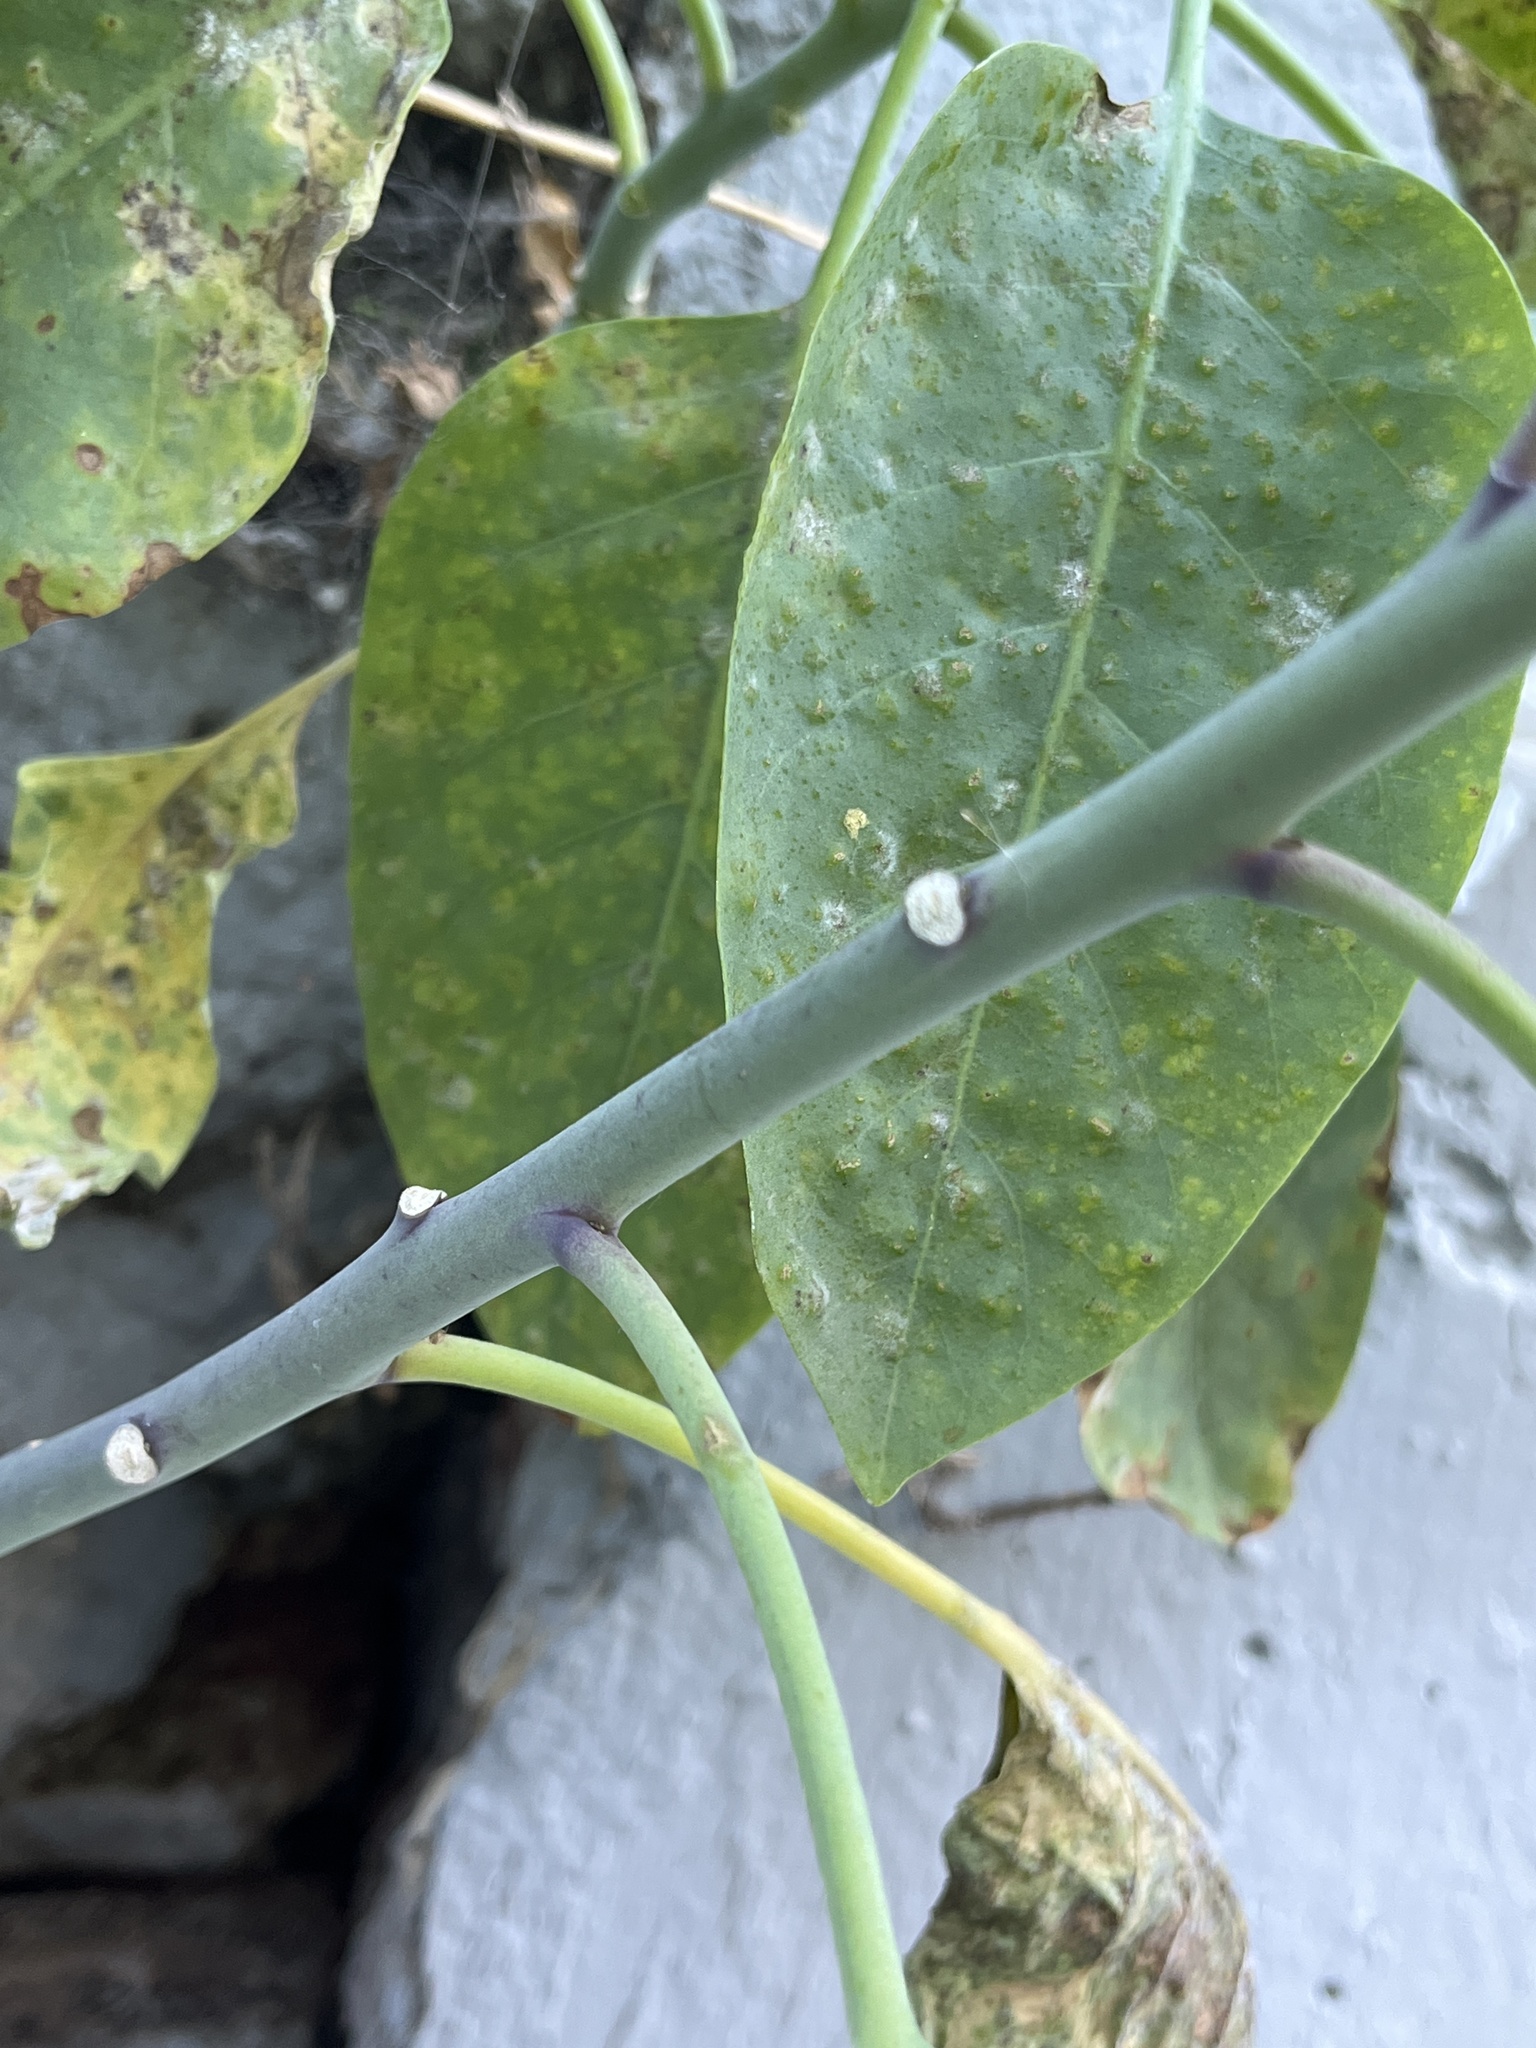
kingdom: Plantae
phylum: Tracheophyta
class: Magnoliopsida
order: Solanales
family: Solanaceae
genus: Nicotiana
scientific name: Nicotiana glauca
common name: Tree tobacco
